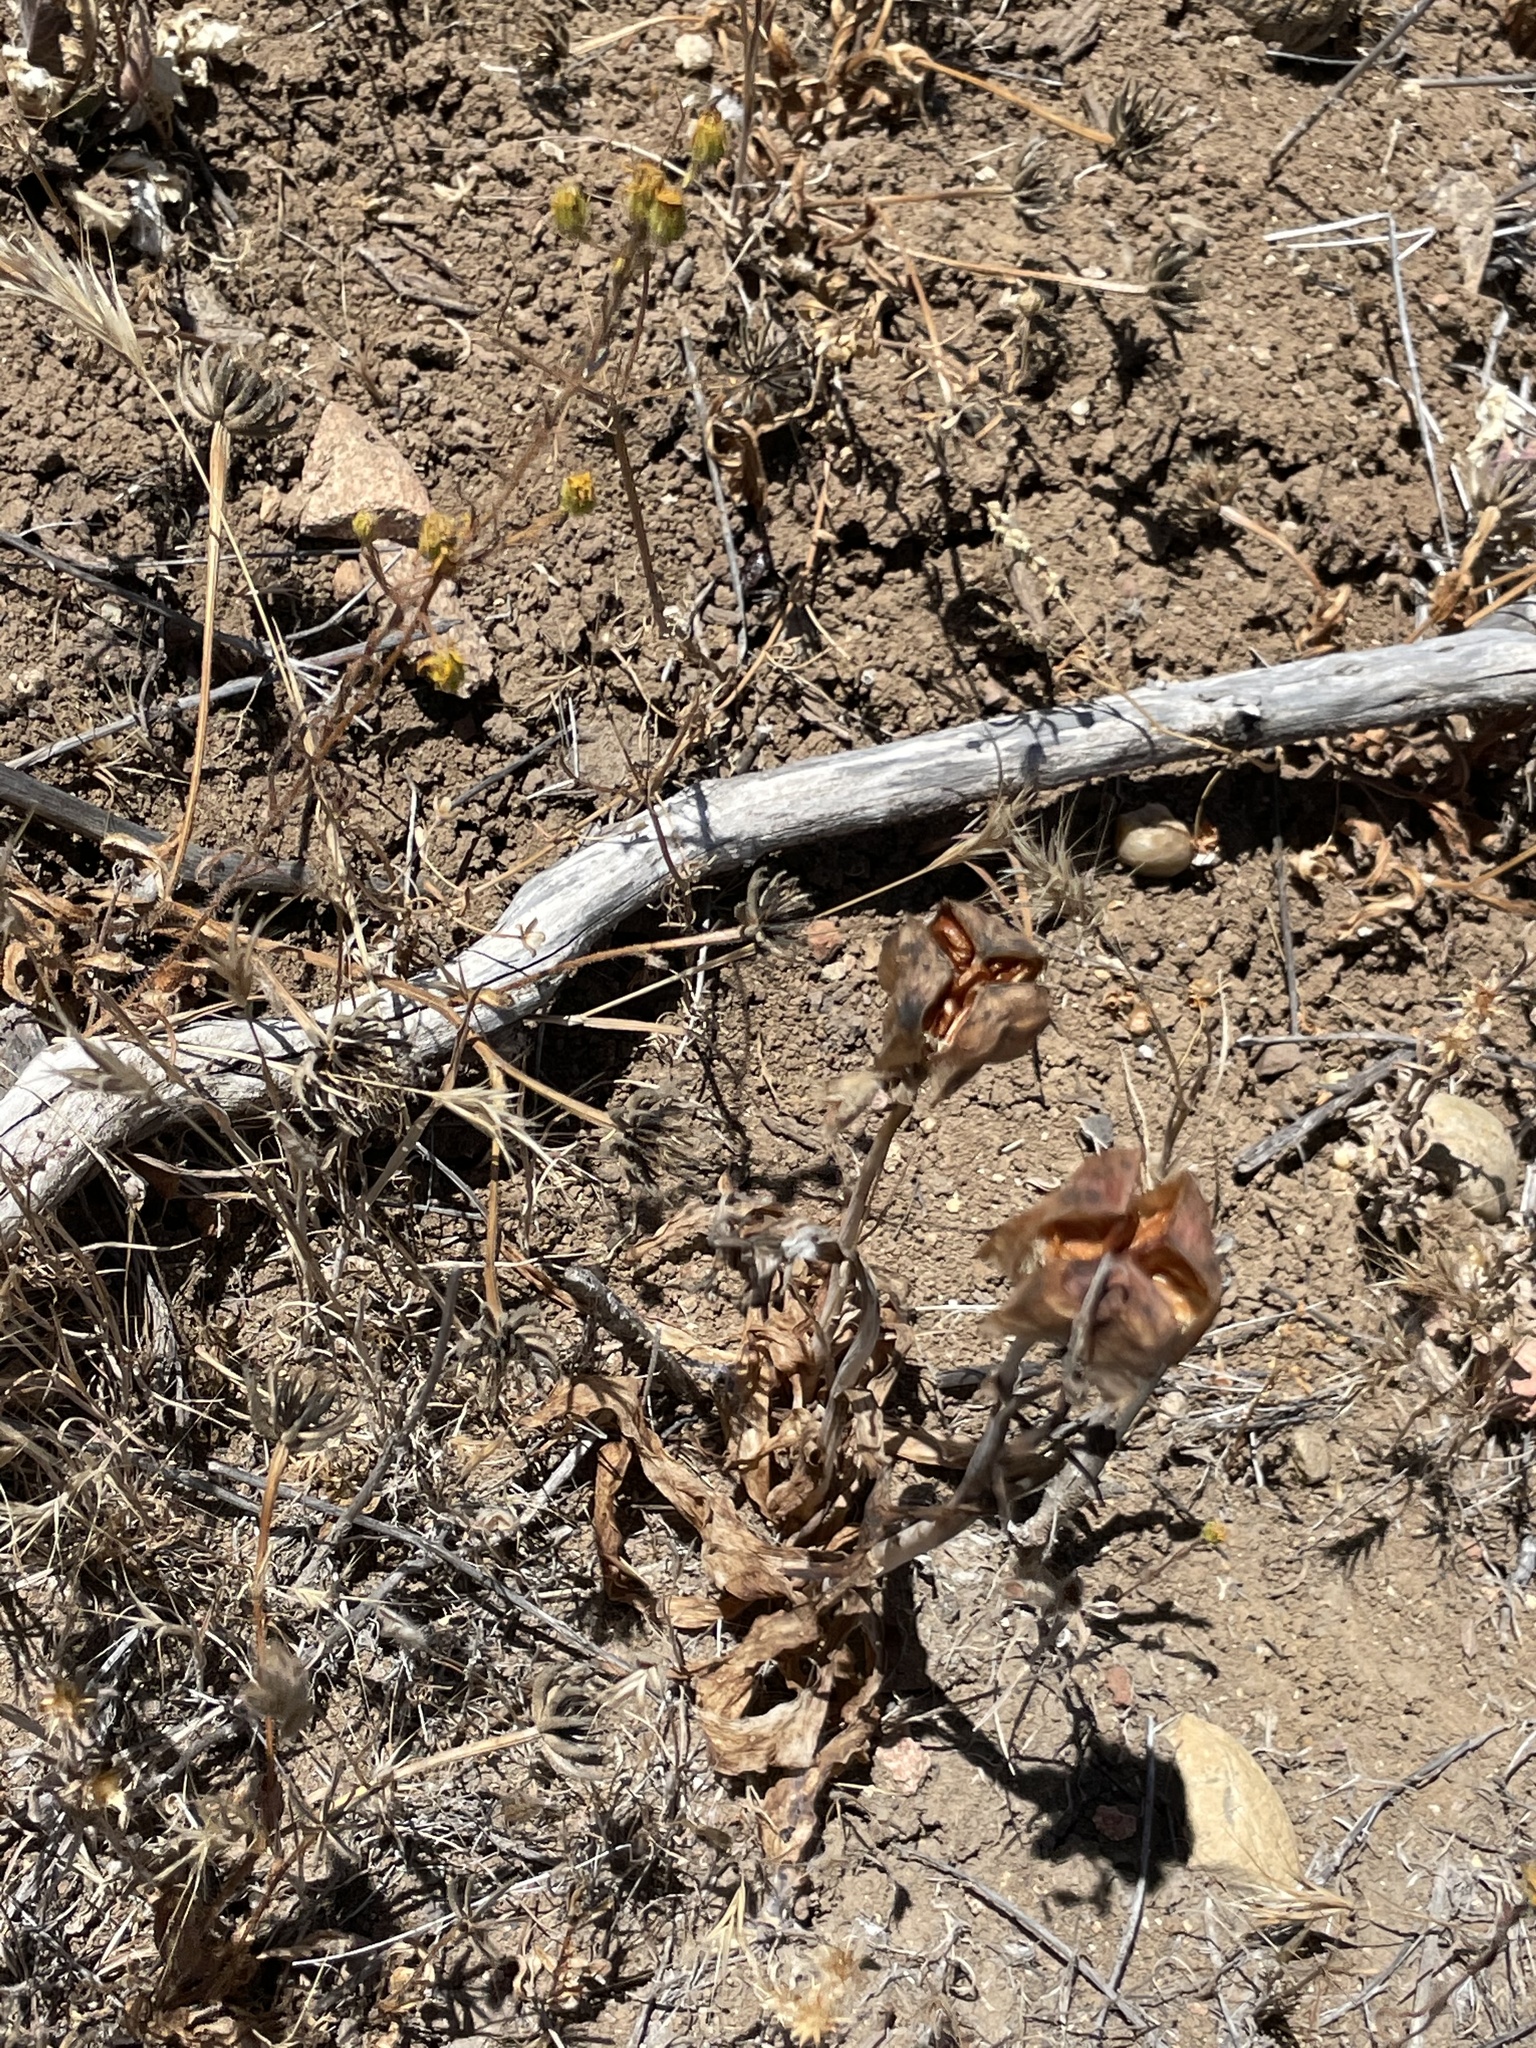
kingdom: Plantae
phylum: Tracheophyta
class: Liliopsida
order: Liliales
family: Liliaceae
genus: Fritillaria
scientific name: Fritillaria biflora
